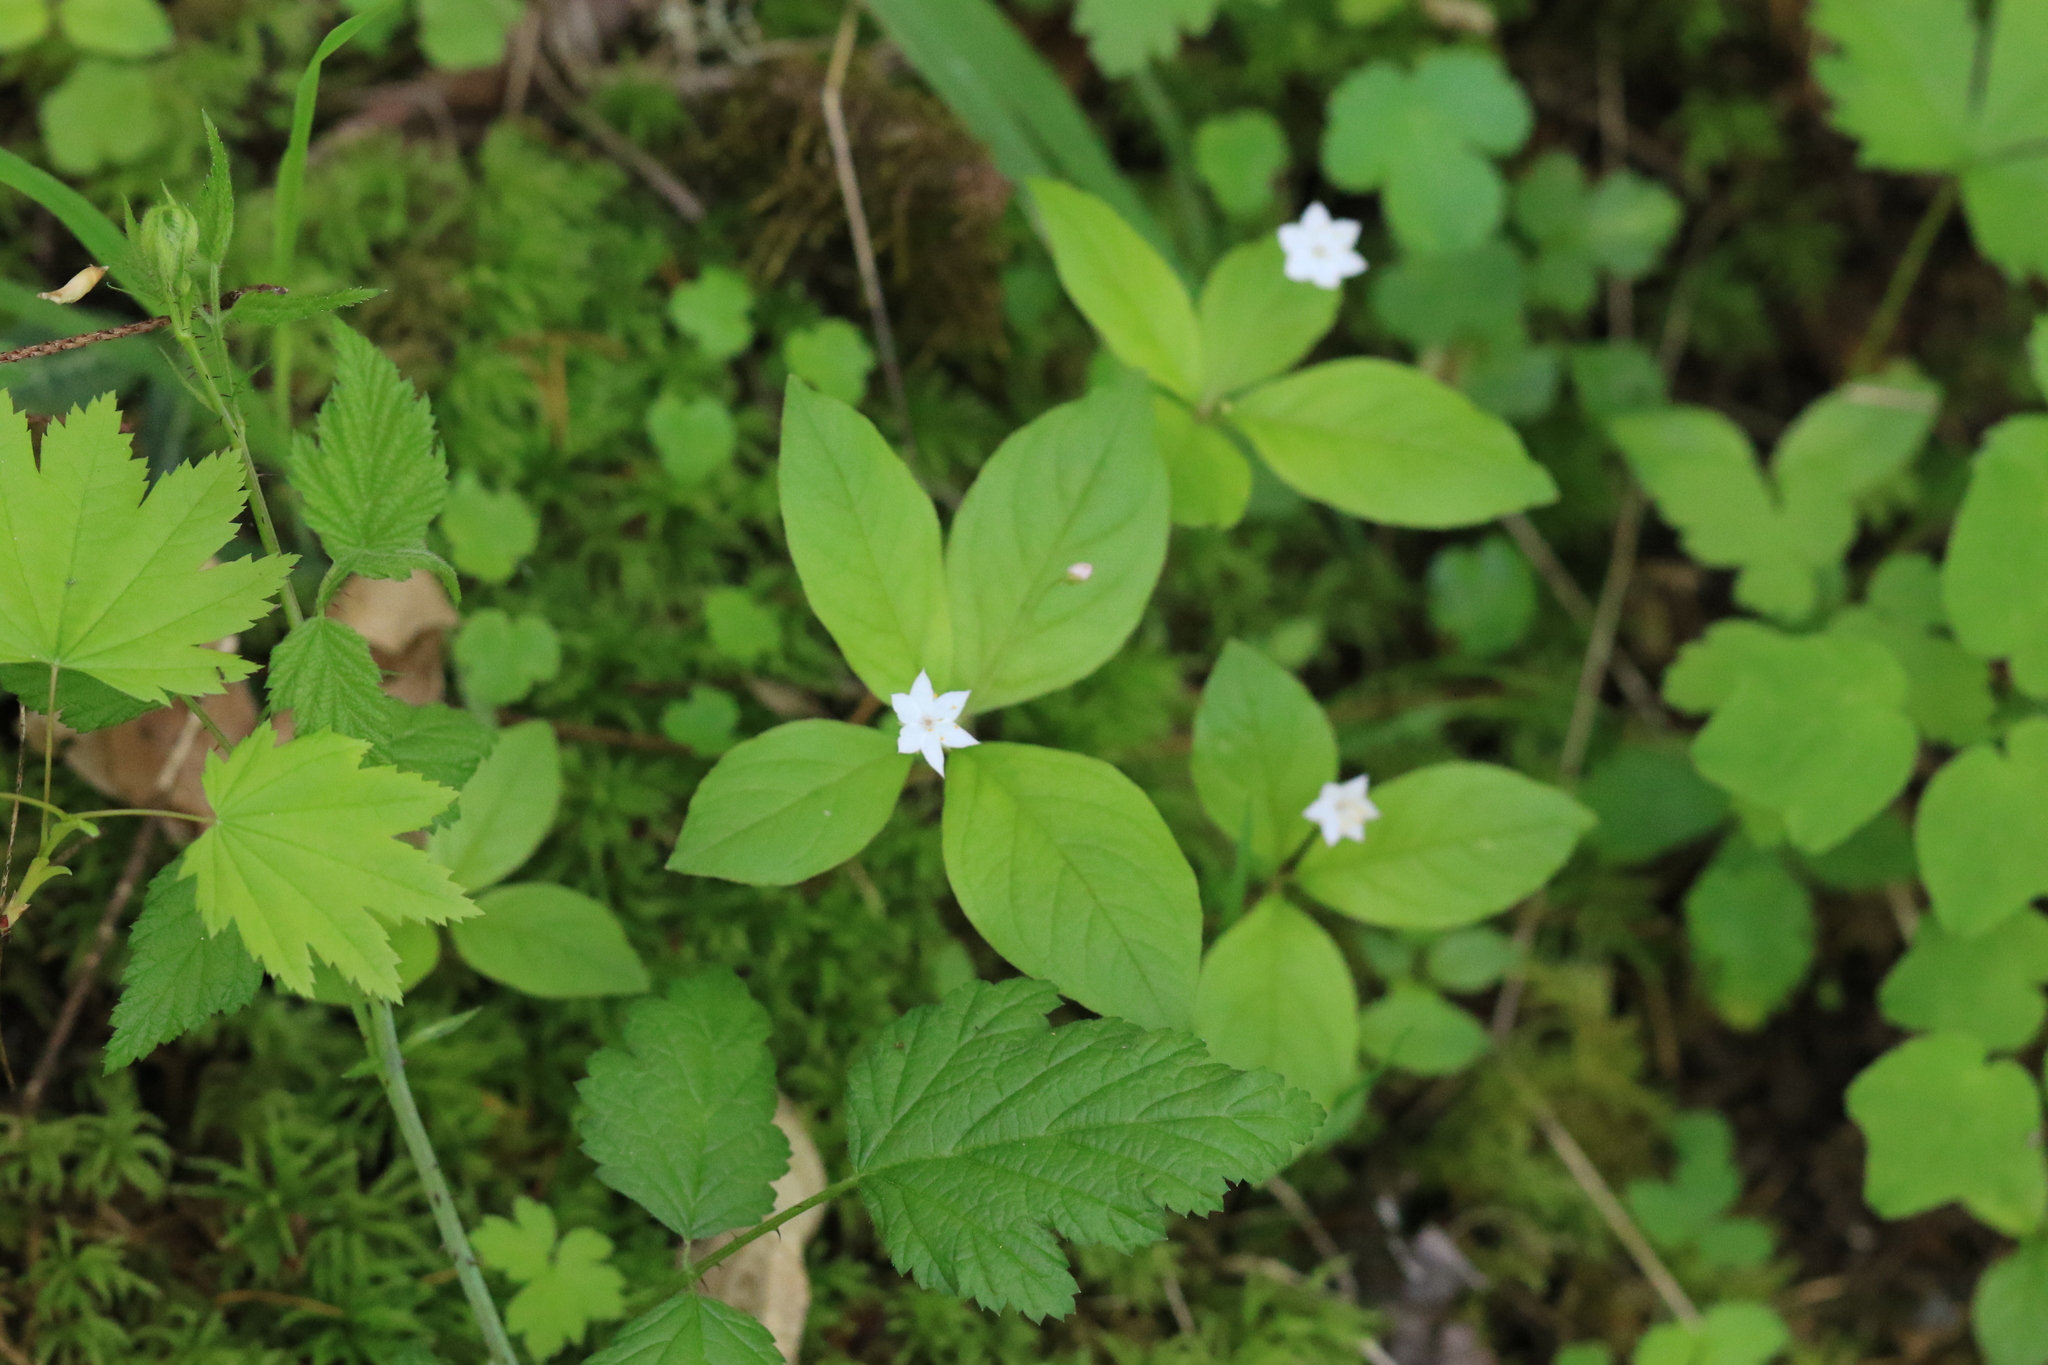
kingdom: Plantae
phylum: Tracheophyta
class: Magnoliopsida
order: Ericales
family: Primulaceae
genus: Lysimachia
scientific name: Lysimachia latifolia
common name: Pacific starflower
